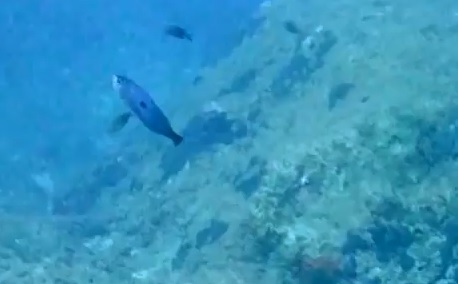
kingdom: Animalia
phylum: Chordata
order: Perciformes
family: Sparidae
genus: Spicara
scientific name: Spicara
